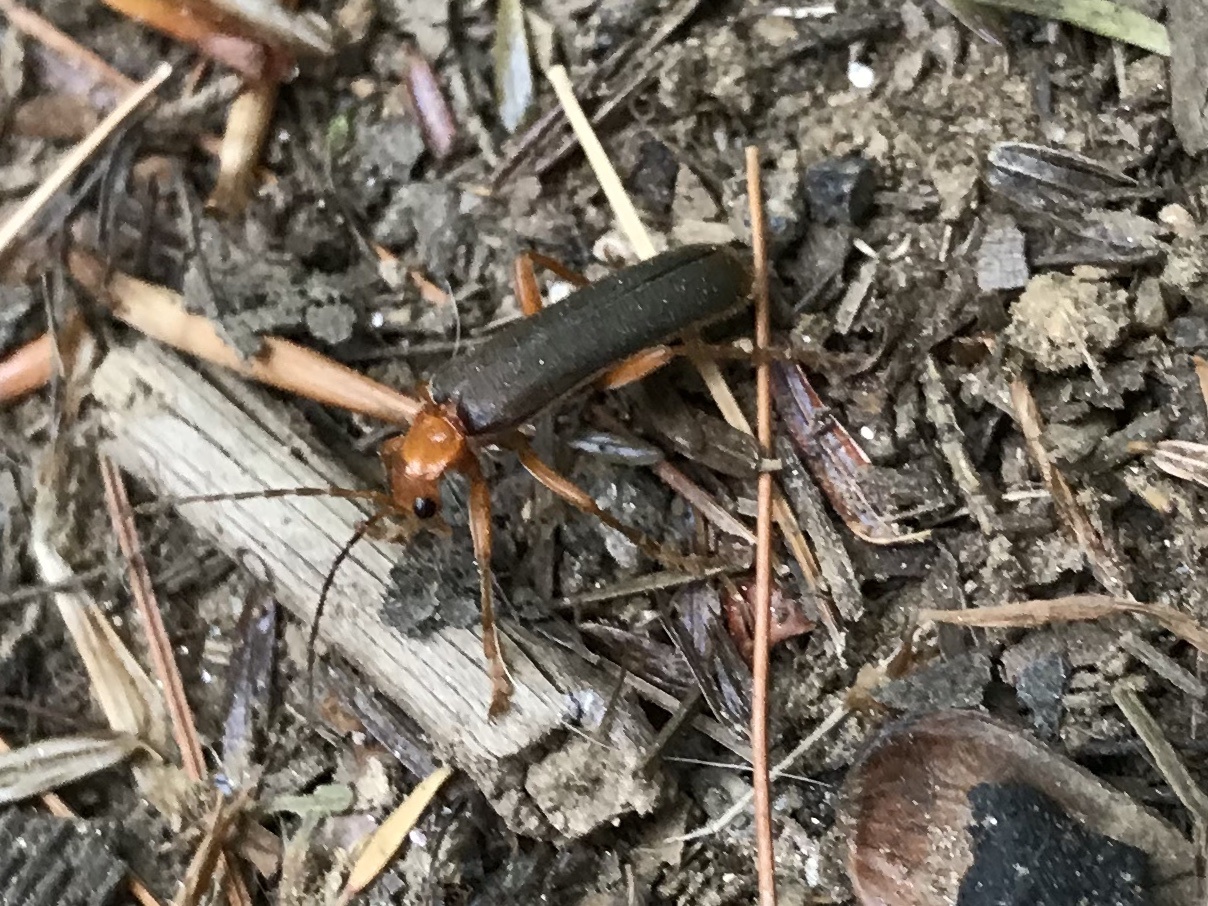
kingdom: Animalia
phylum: Arthropoda
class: Insecta
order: Coleoptera
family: Cantharidae
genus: Pacificanthia
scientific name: Pacificanthia rotundicollis
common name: Brown leatherwing beetle
